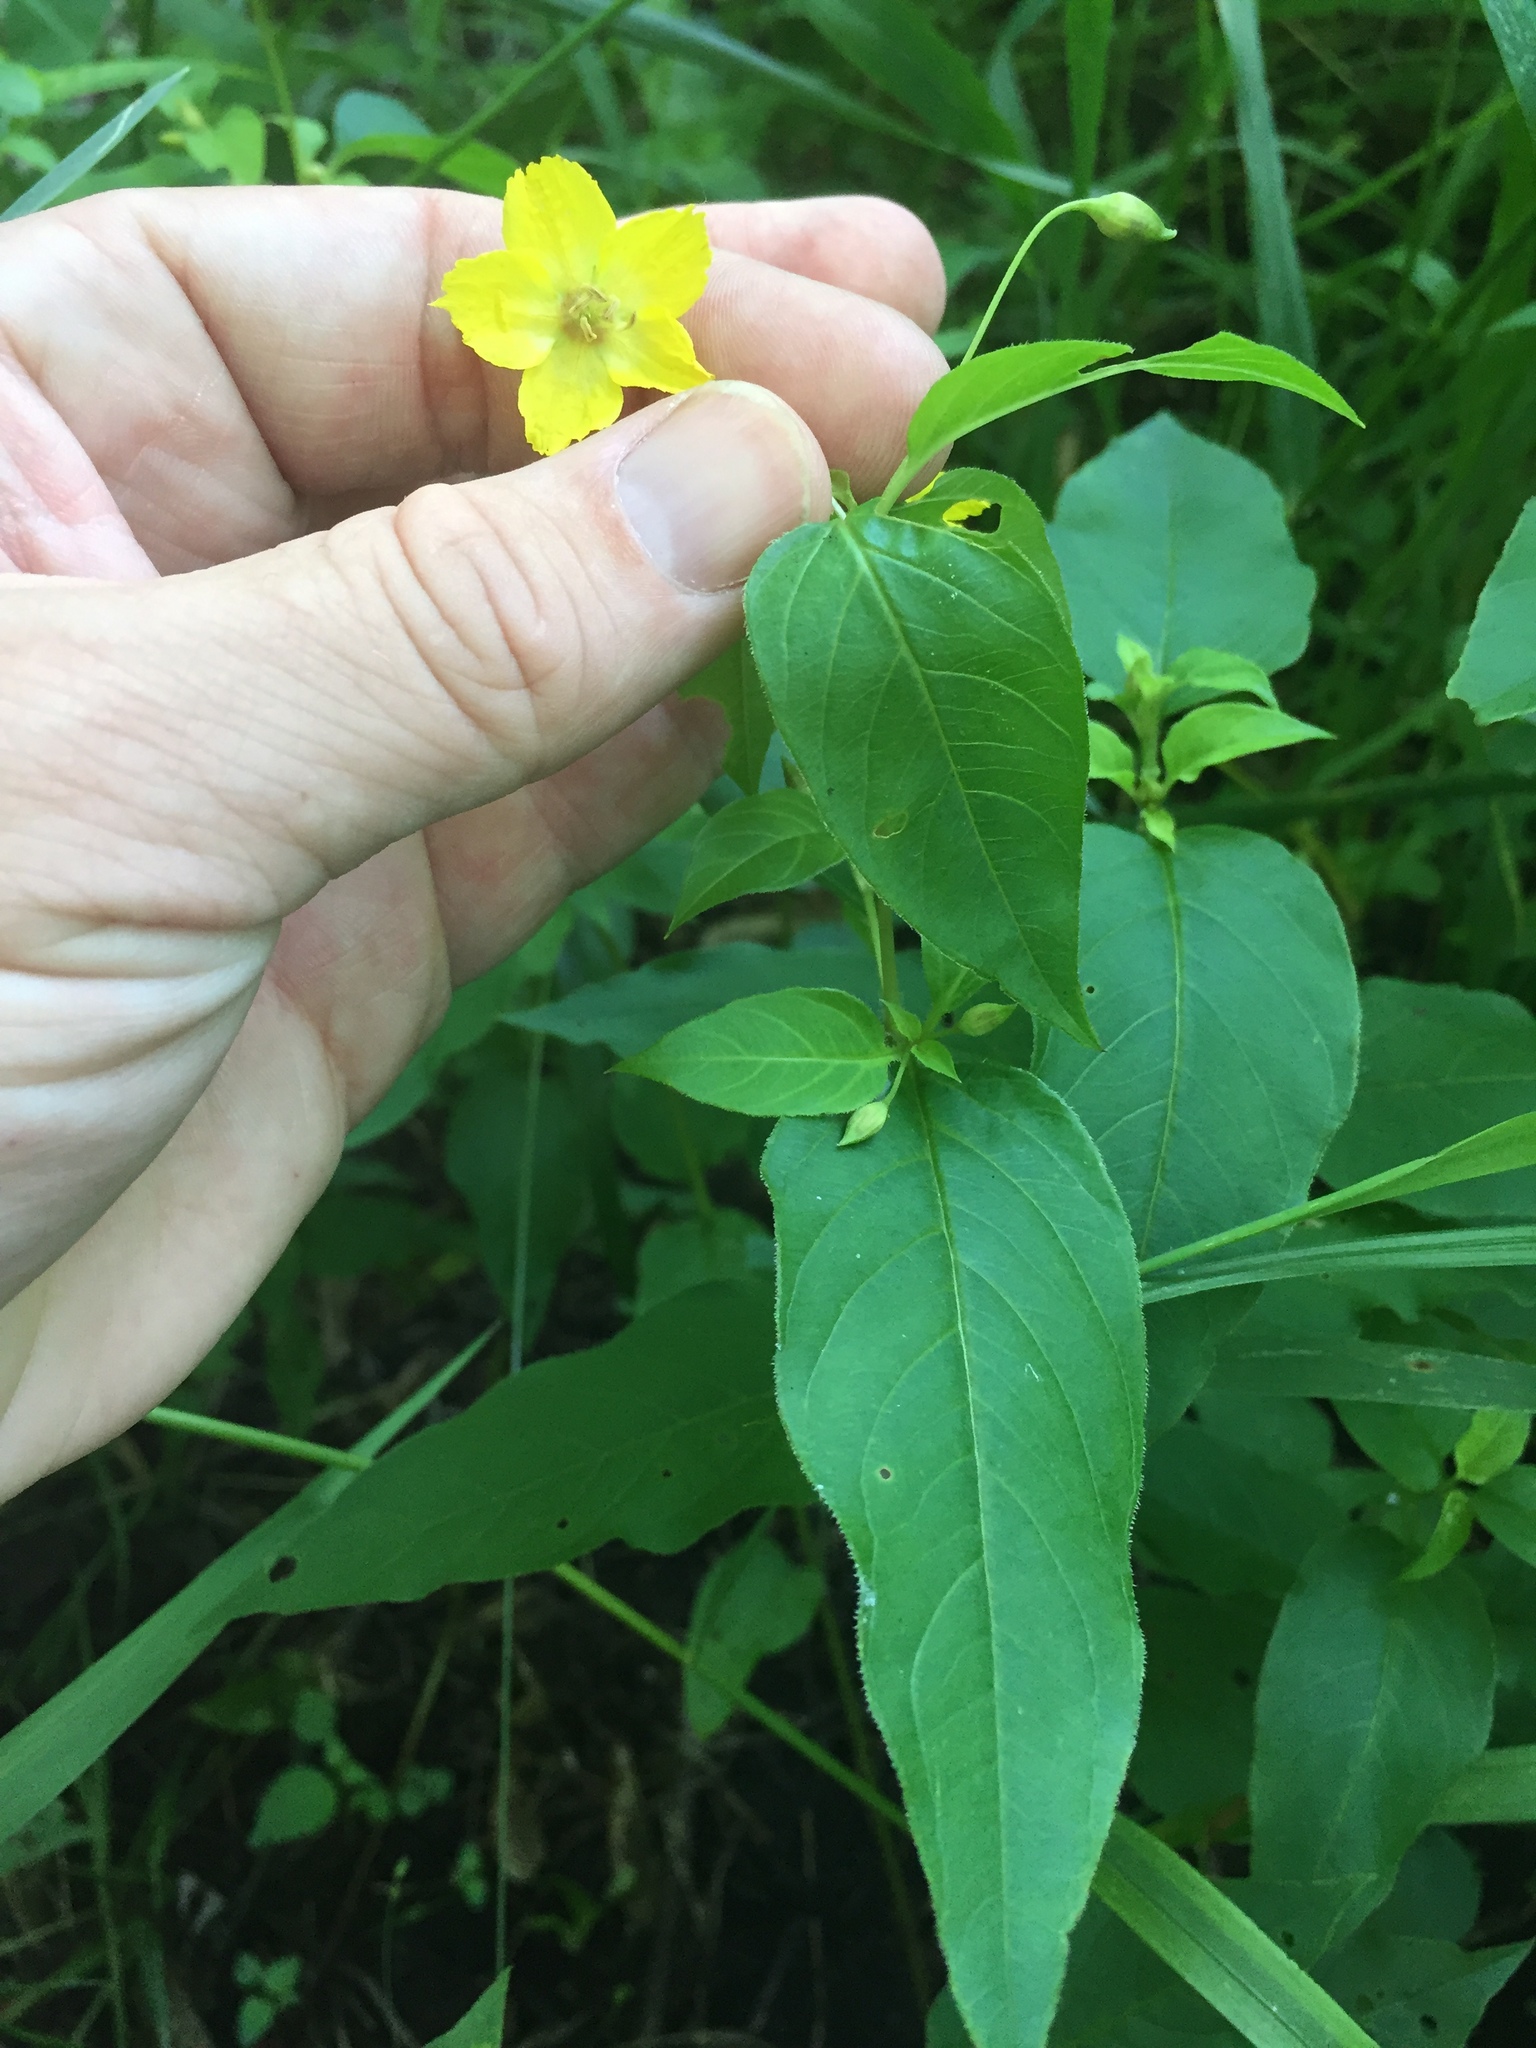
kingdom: Plantae
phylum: Tracheophyta
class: Magnoliopsida
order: Ericales
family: Primulaceae
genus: Lysimachia
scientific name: Lysimachia ciliata
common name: Fringed loosestrife
